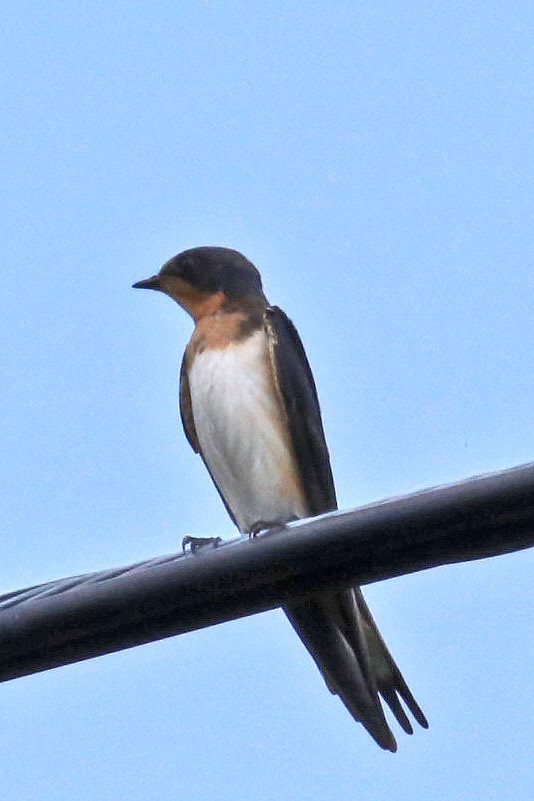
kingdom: Animalia
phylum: Chordata
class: Aves
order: Passeriformes
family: Hirundinidae
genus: Hirundo
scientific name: Hirundo rustica
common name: Barn swallow
